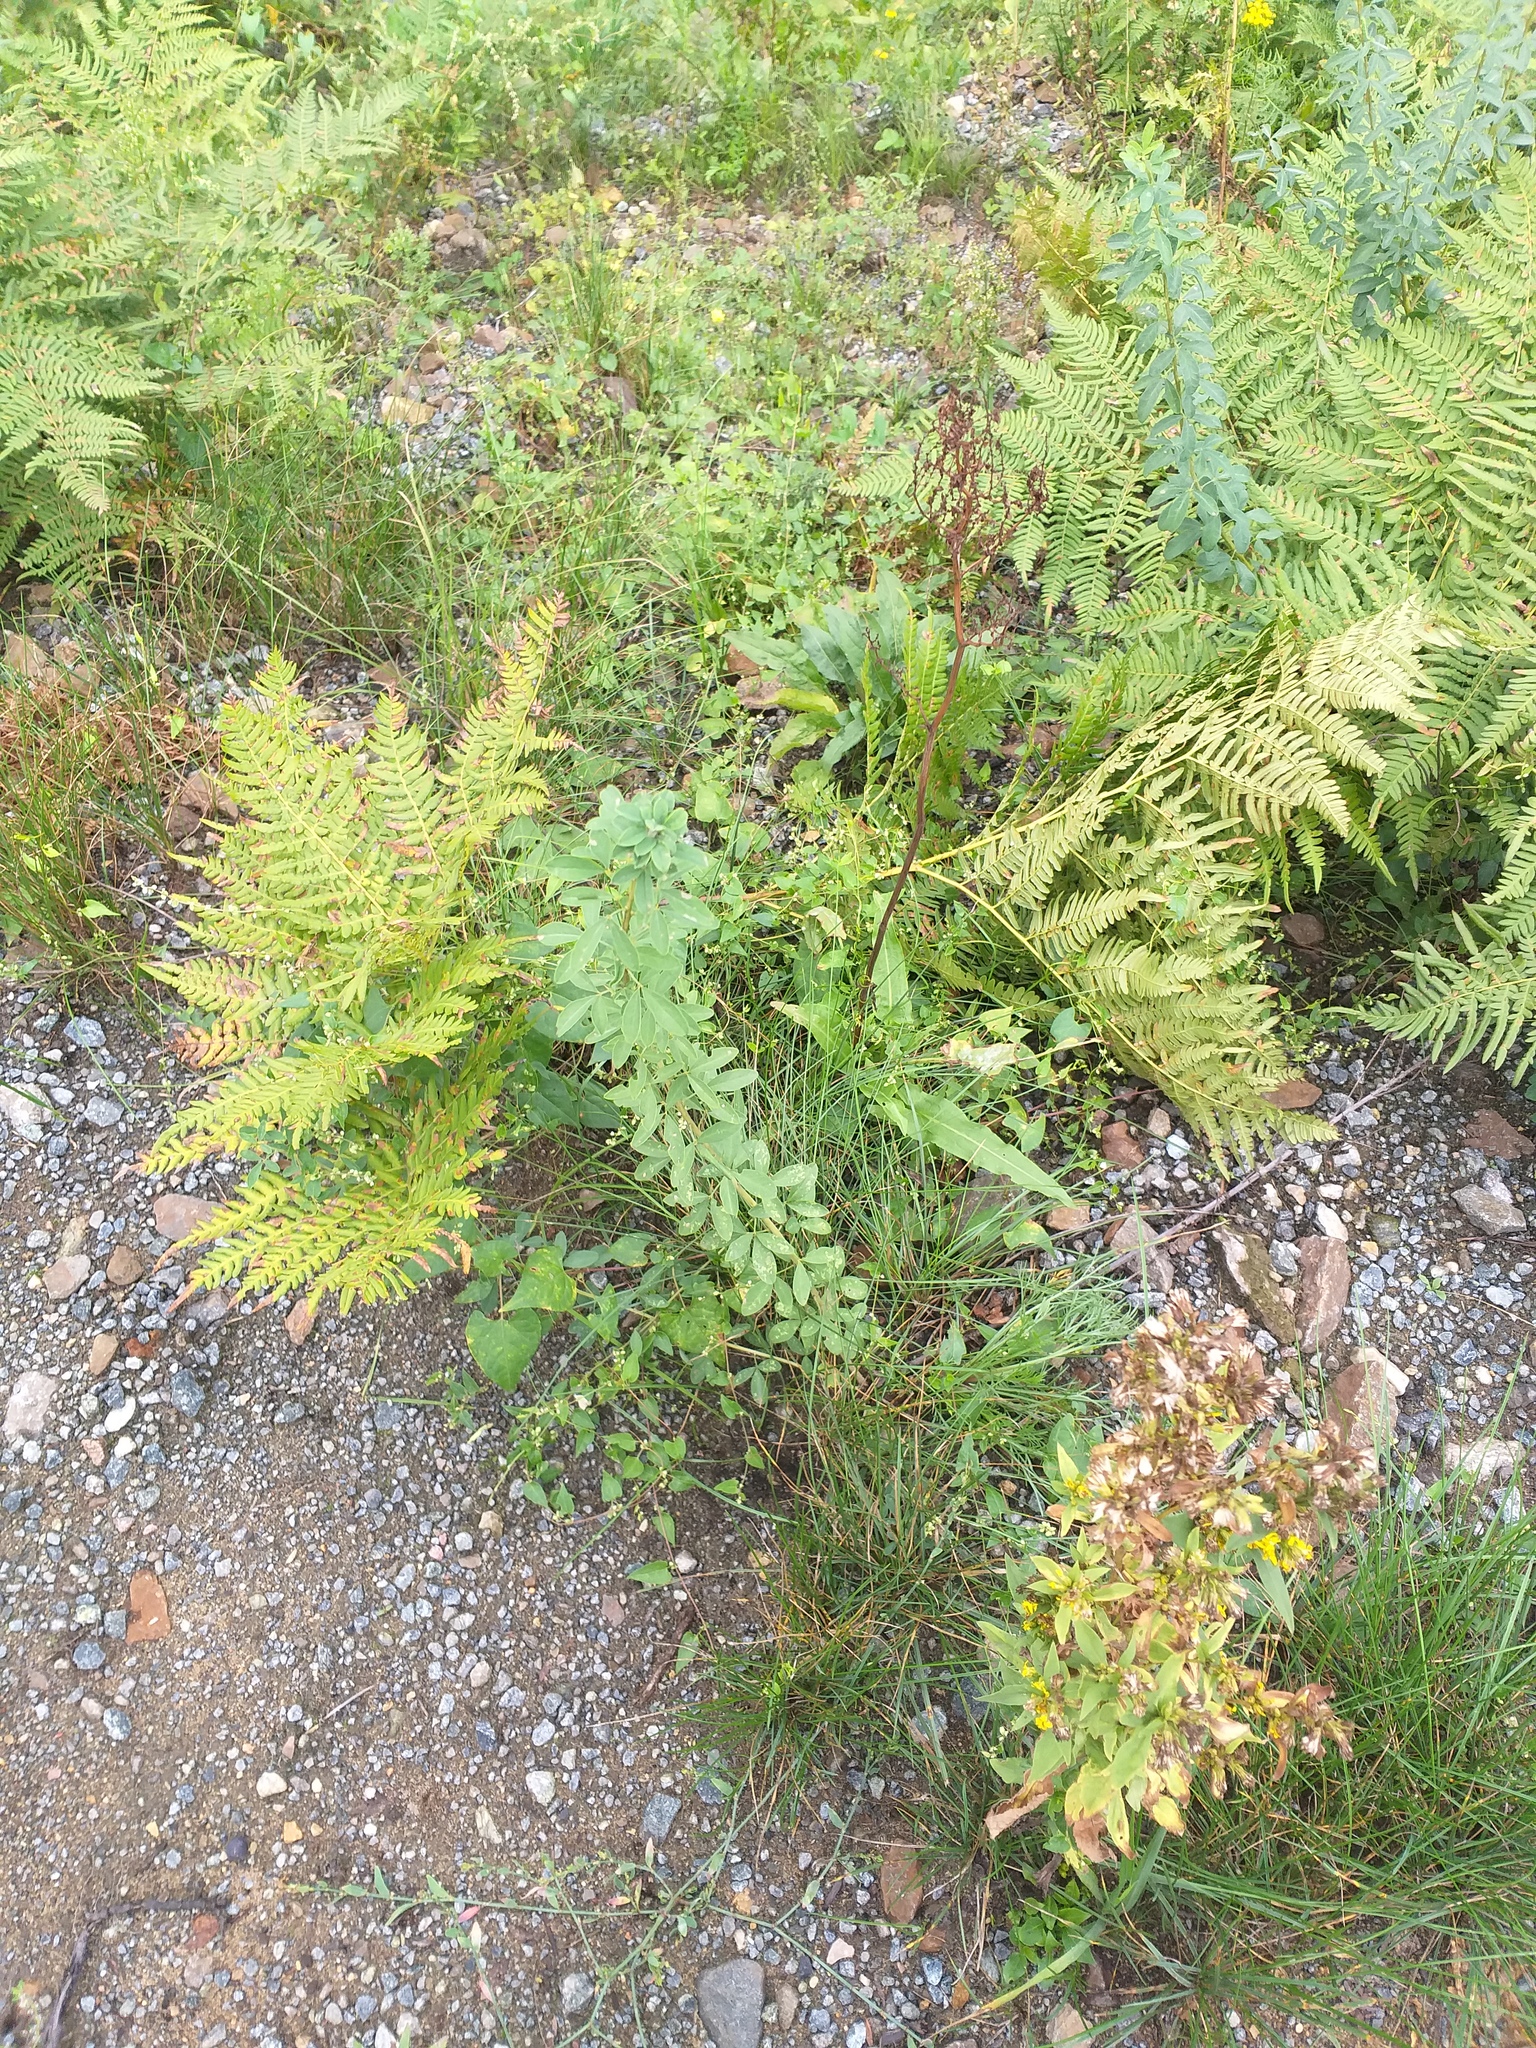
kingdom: Plantae
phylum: Tracheophyta
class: Magnoliopsida
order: Fabales
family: Fabaceae
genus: Chamaecytisus
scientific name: Chamaecytisus ruthenicus
